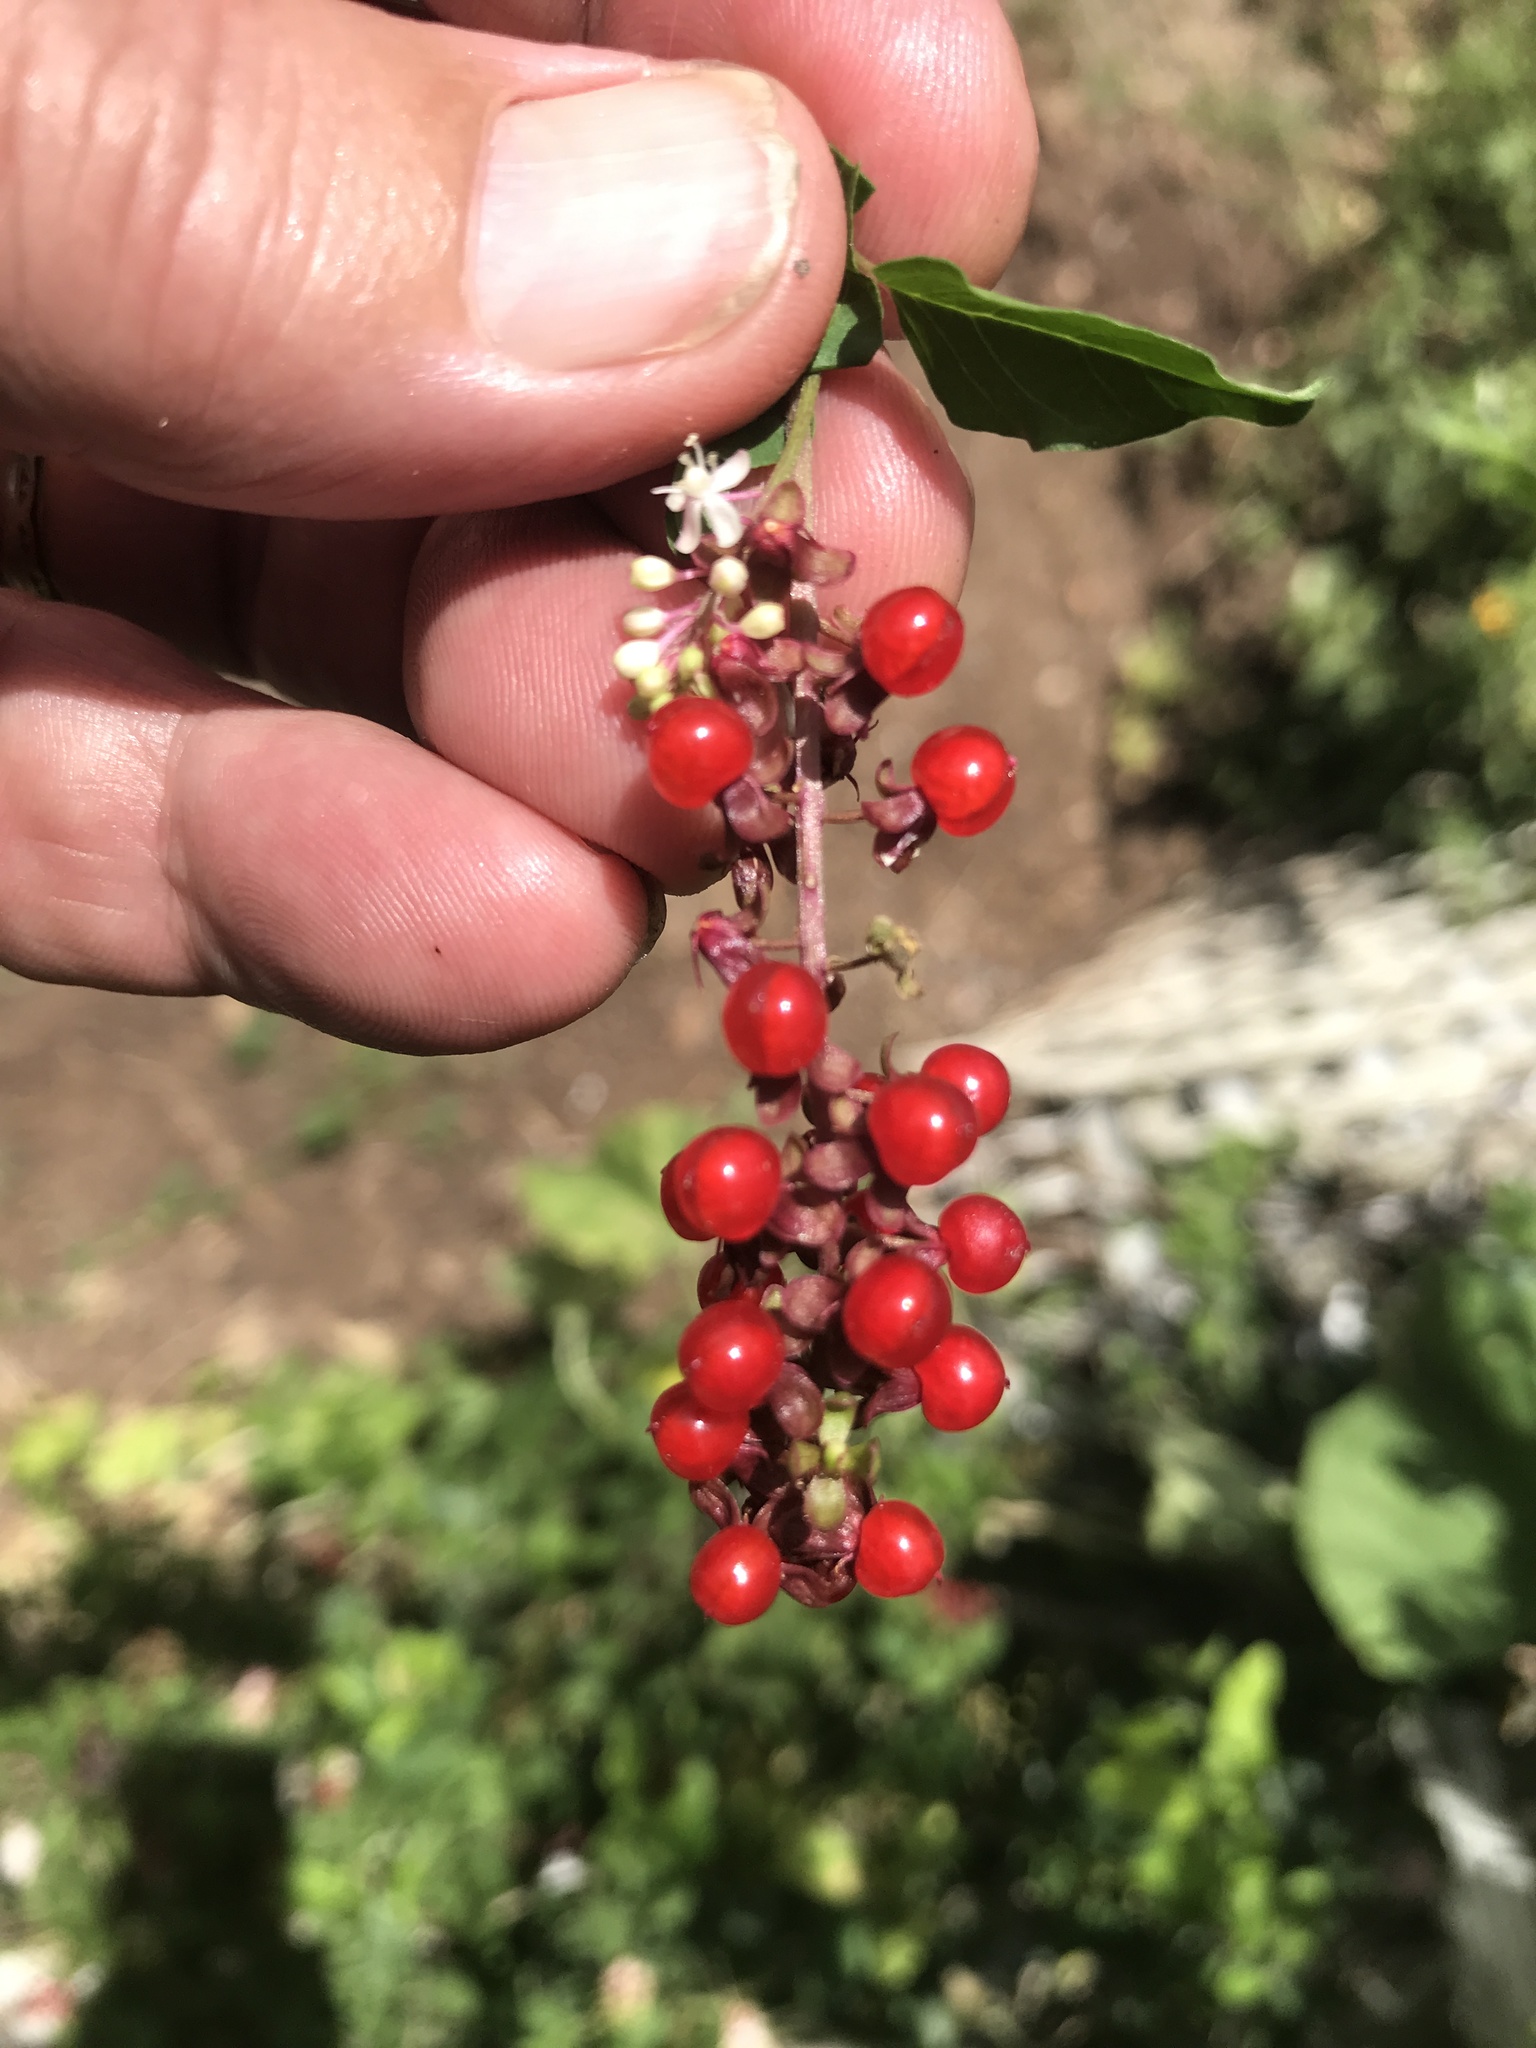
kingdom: Plantae
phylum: Tracheophyta
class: Magnoliopsida
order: Caryophyllales
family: Phytolaccaceae
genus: Rivina
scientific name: Rivina humilis
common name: Rougeplant
